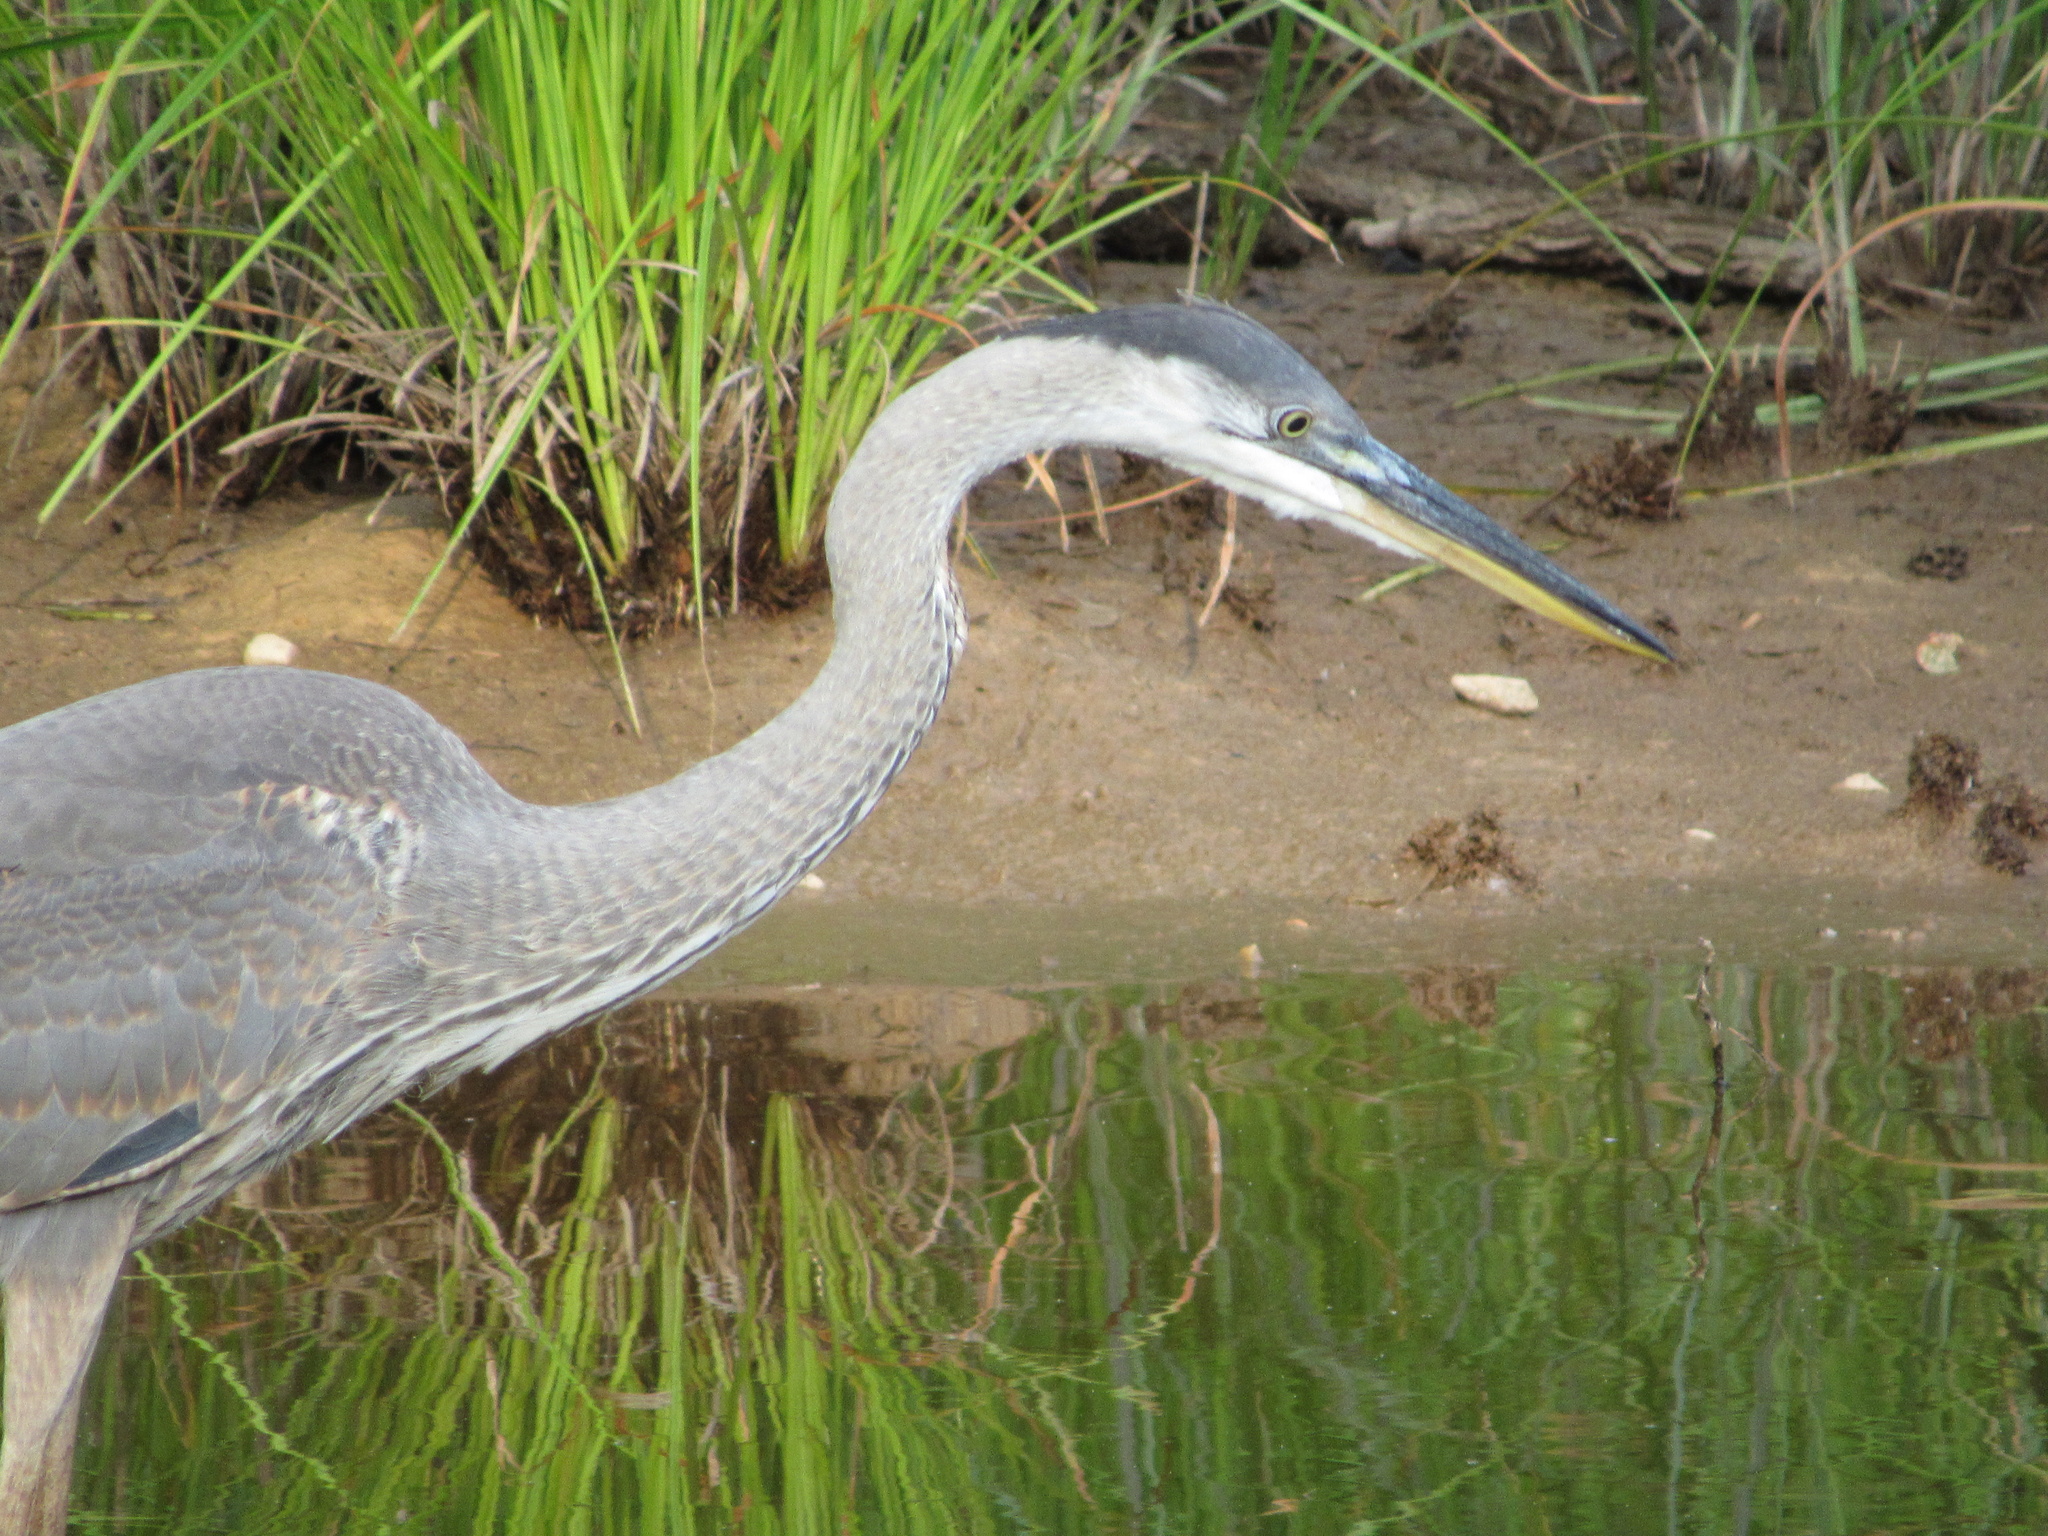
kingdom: Animalia
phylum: Chordata
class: Aves
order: Pelecaniformes
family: Ardeidae
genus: Ardea
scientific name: Ardea herodias
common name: Great blue heron
